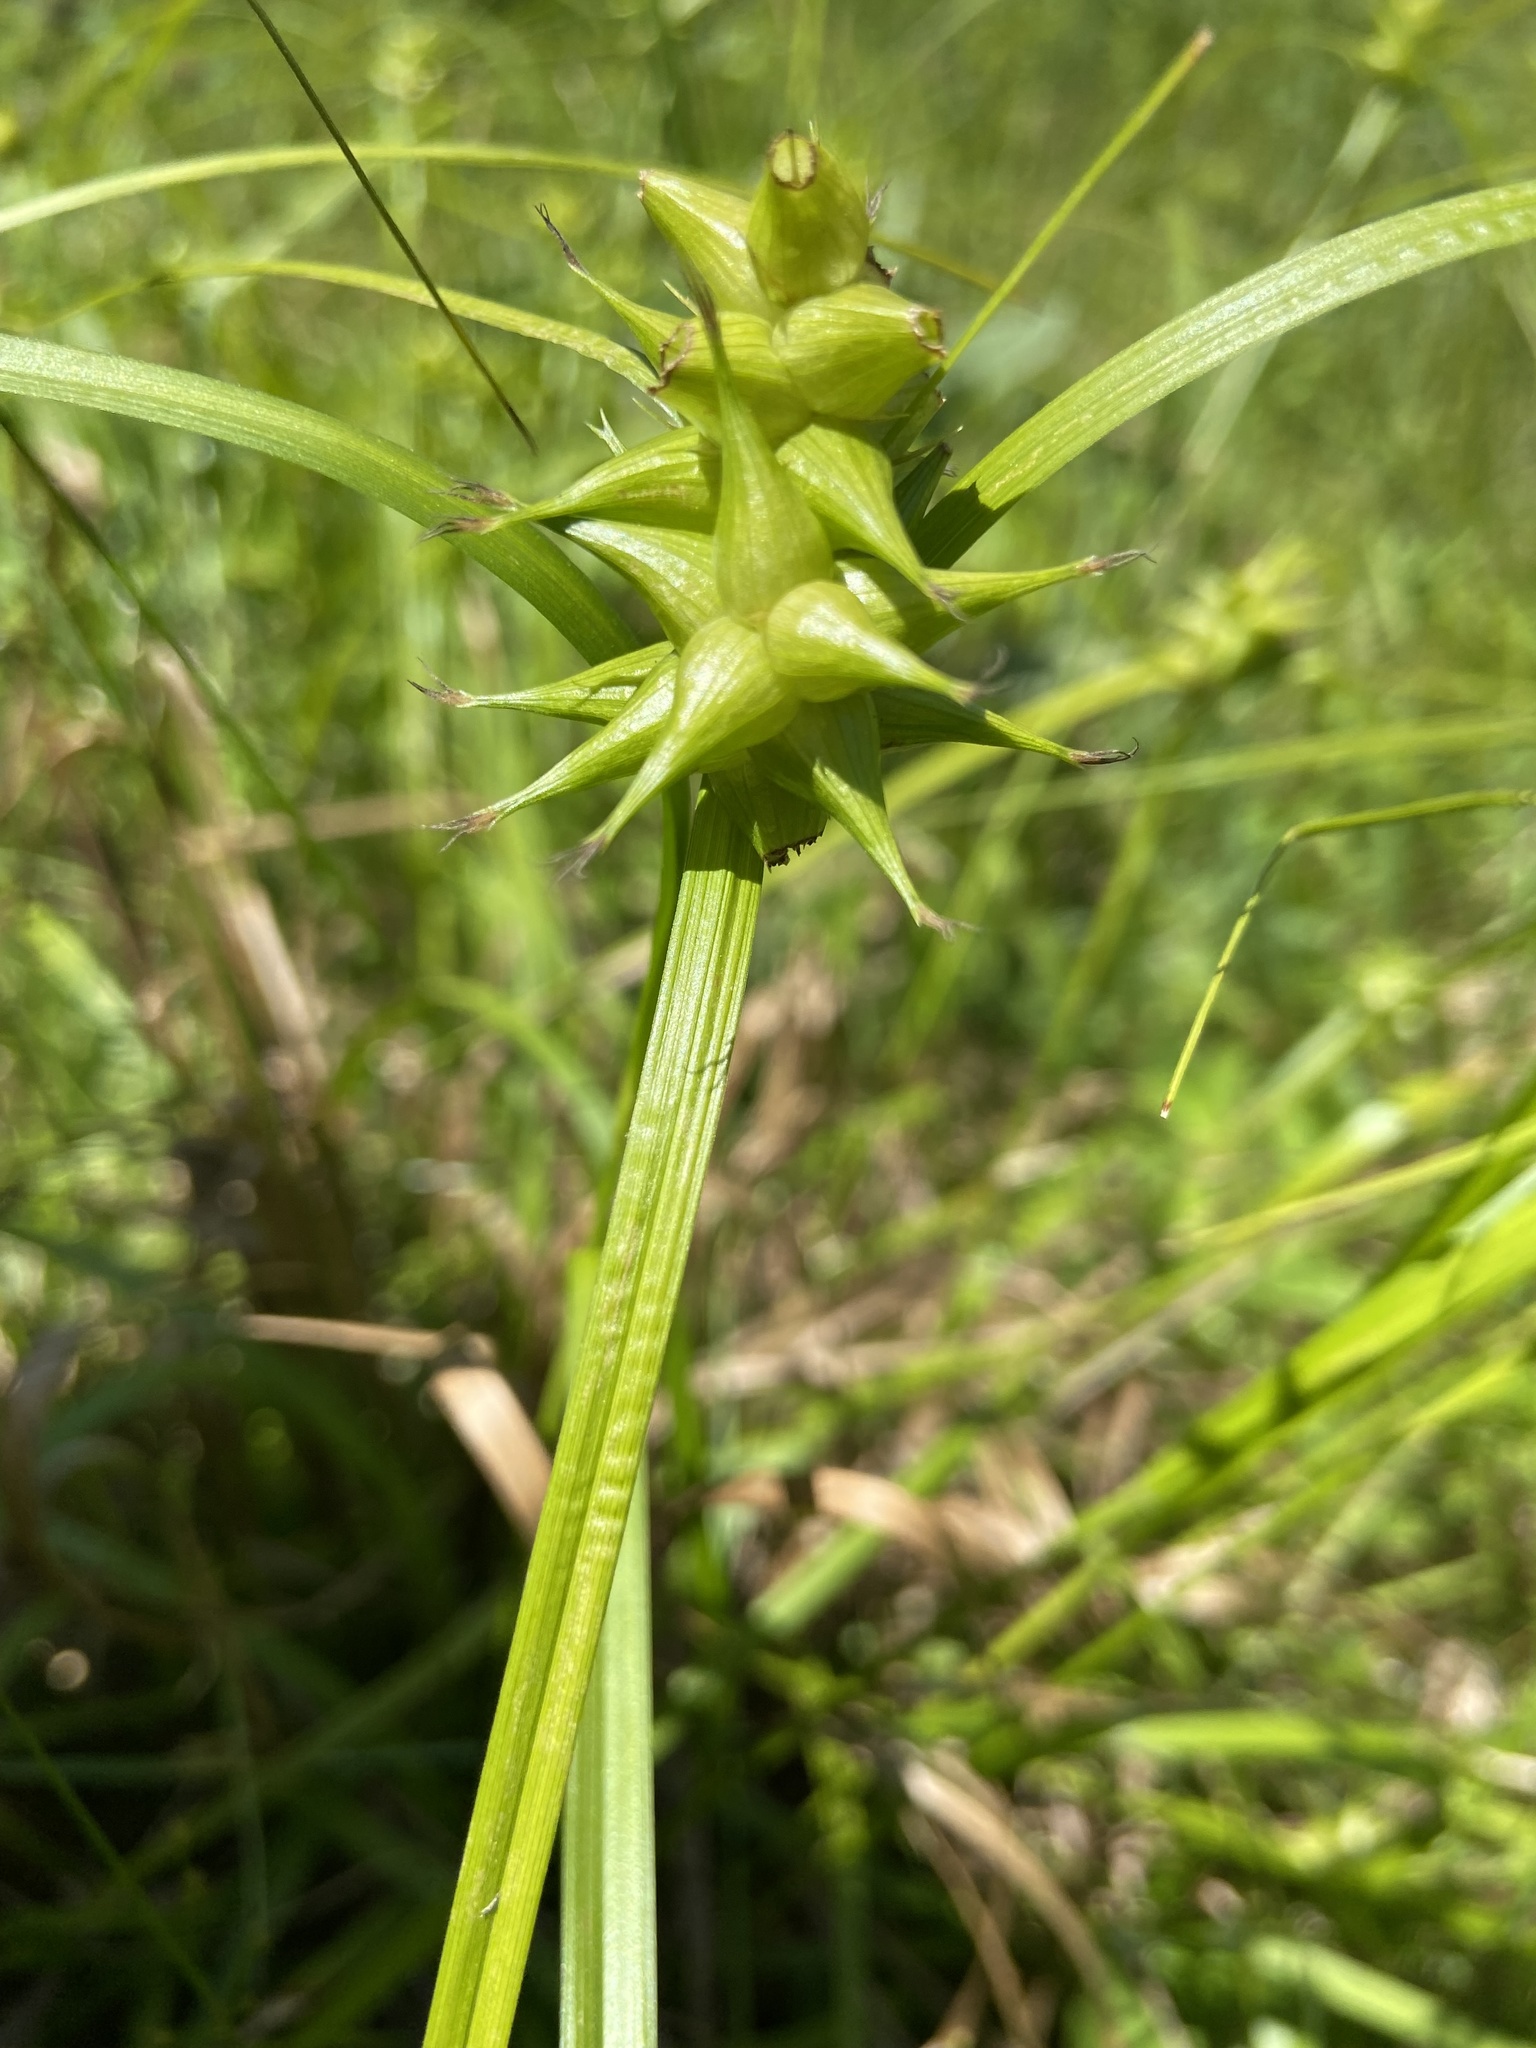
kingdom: Plantae
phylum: Tracheophyta
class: Liliopsida
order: Poales
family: Cyperaceae
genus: Carex
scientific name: Carex intumescens
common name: Greater bladder sedge
